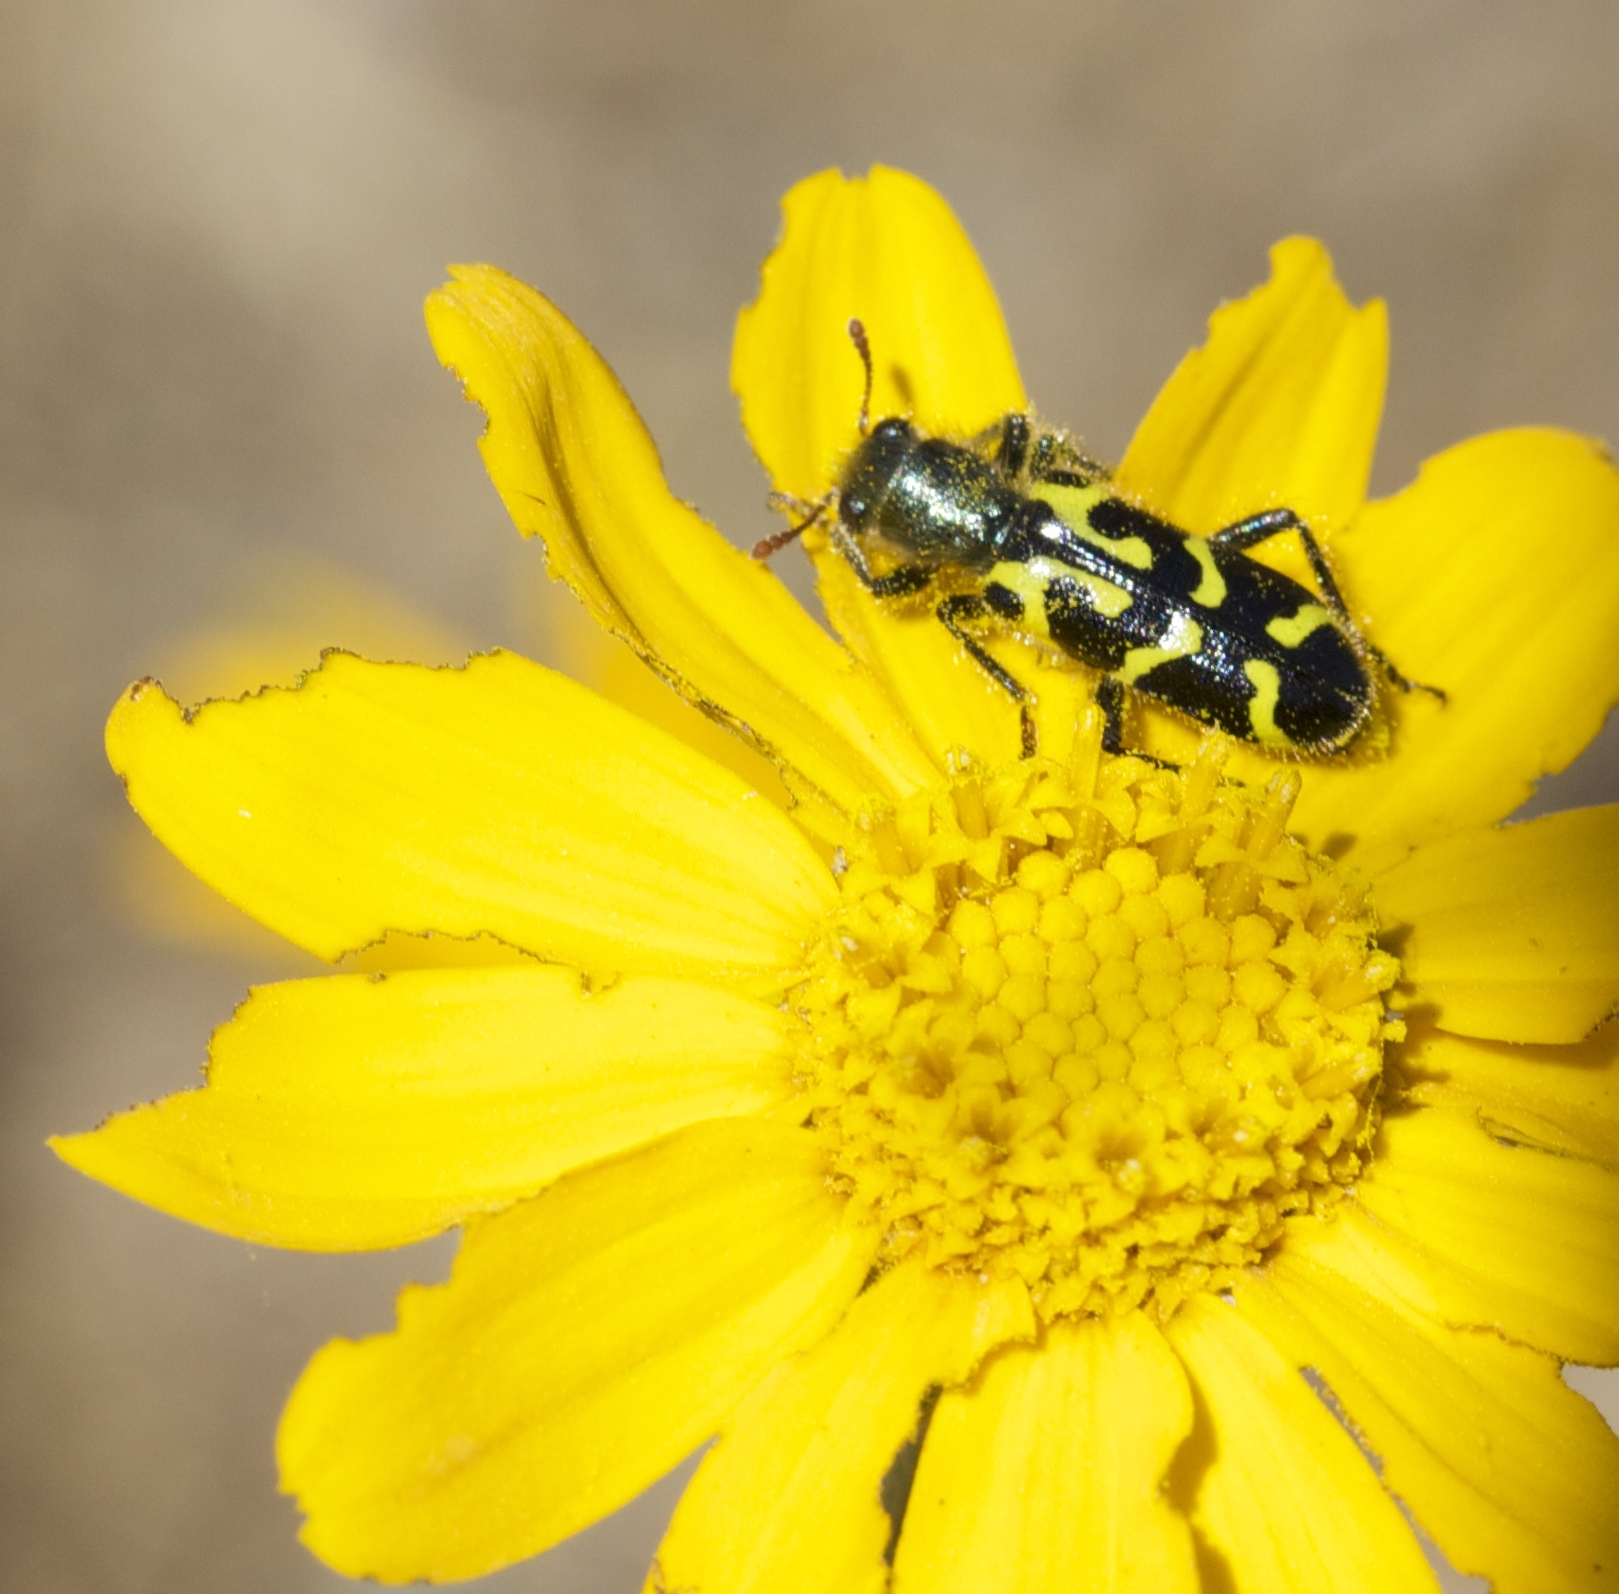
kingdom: Animalia
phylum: Arthropoda
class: Insecta
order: Coleoptera
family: Cleridae
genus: Trichodes
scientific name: Trichodes ornatus
